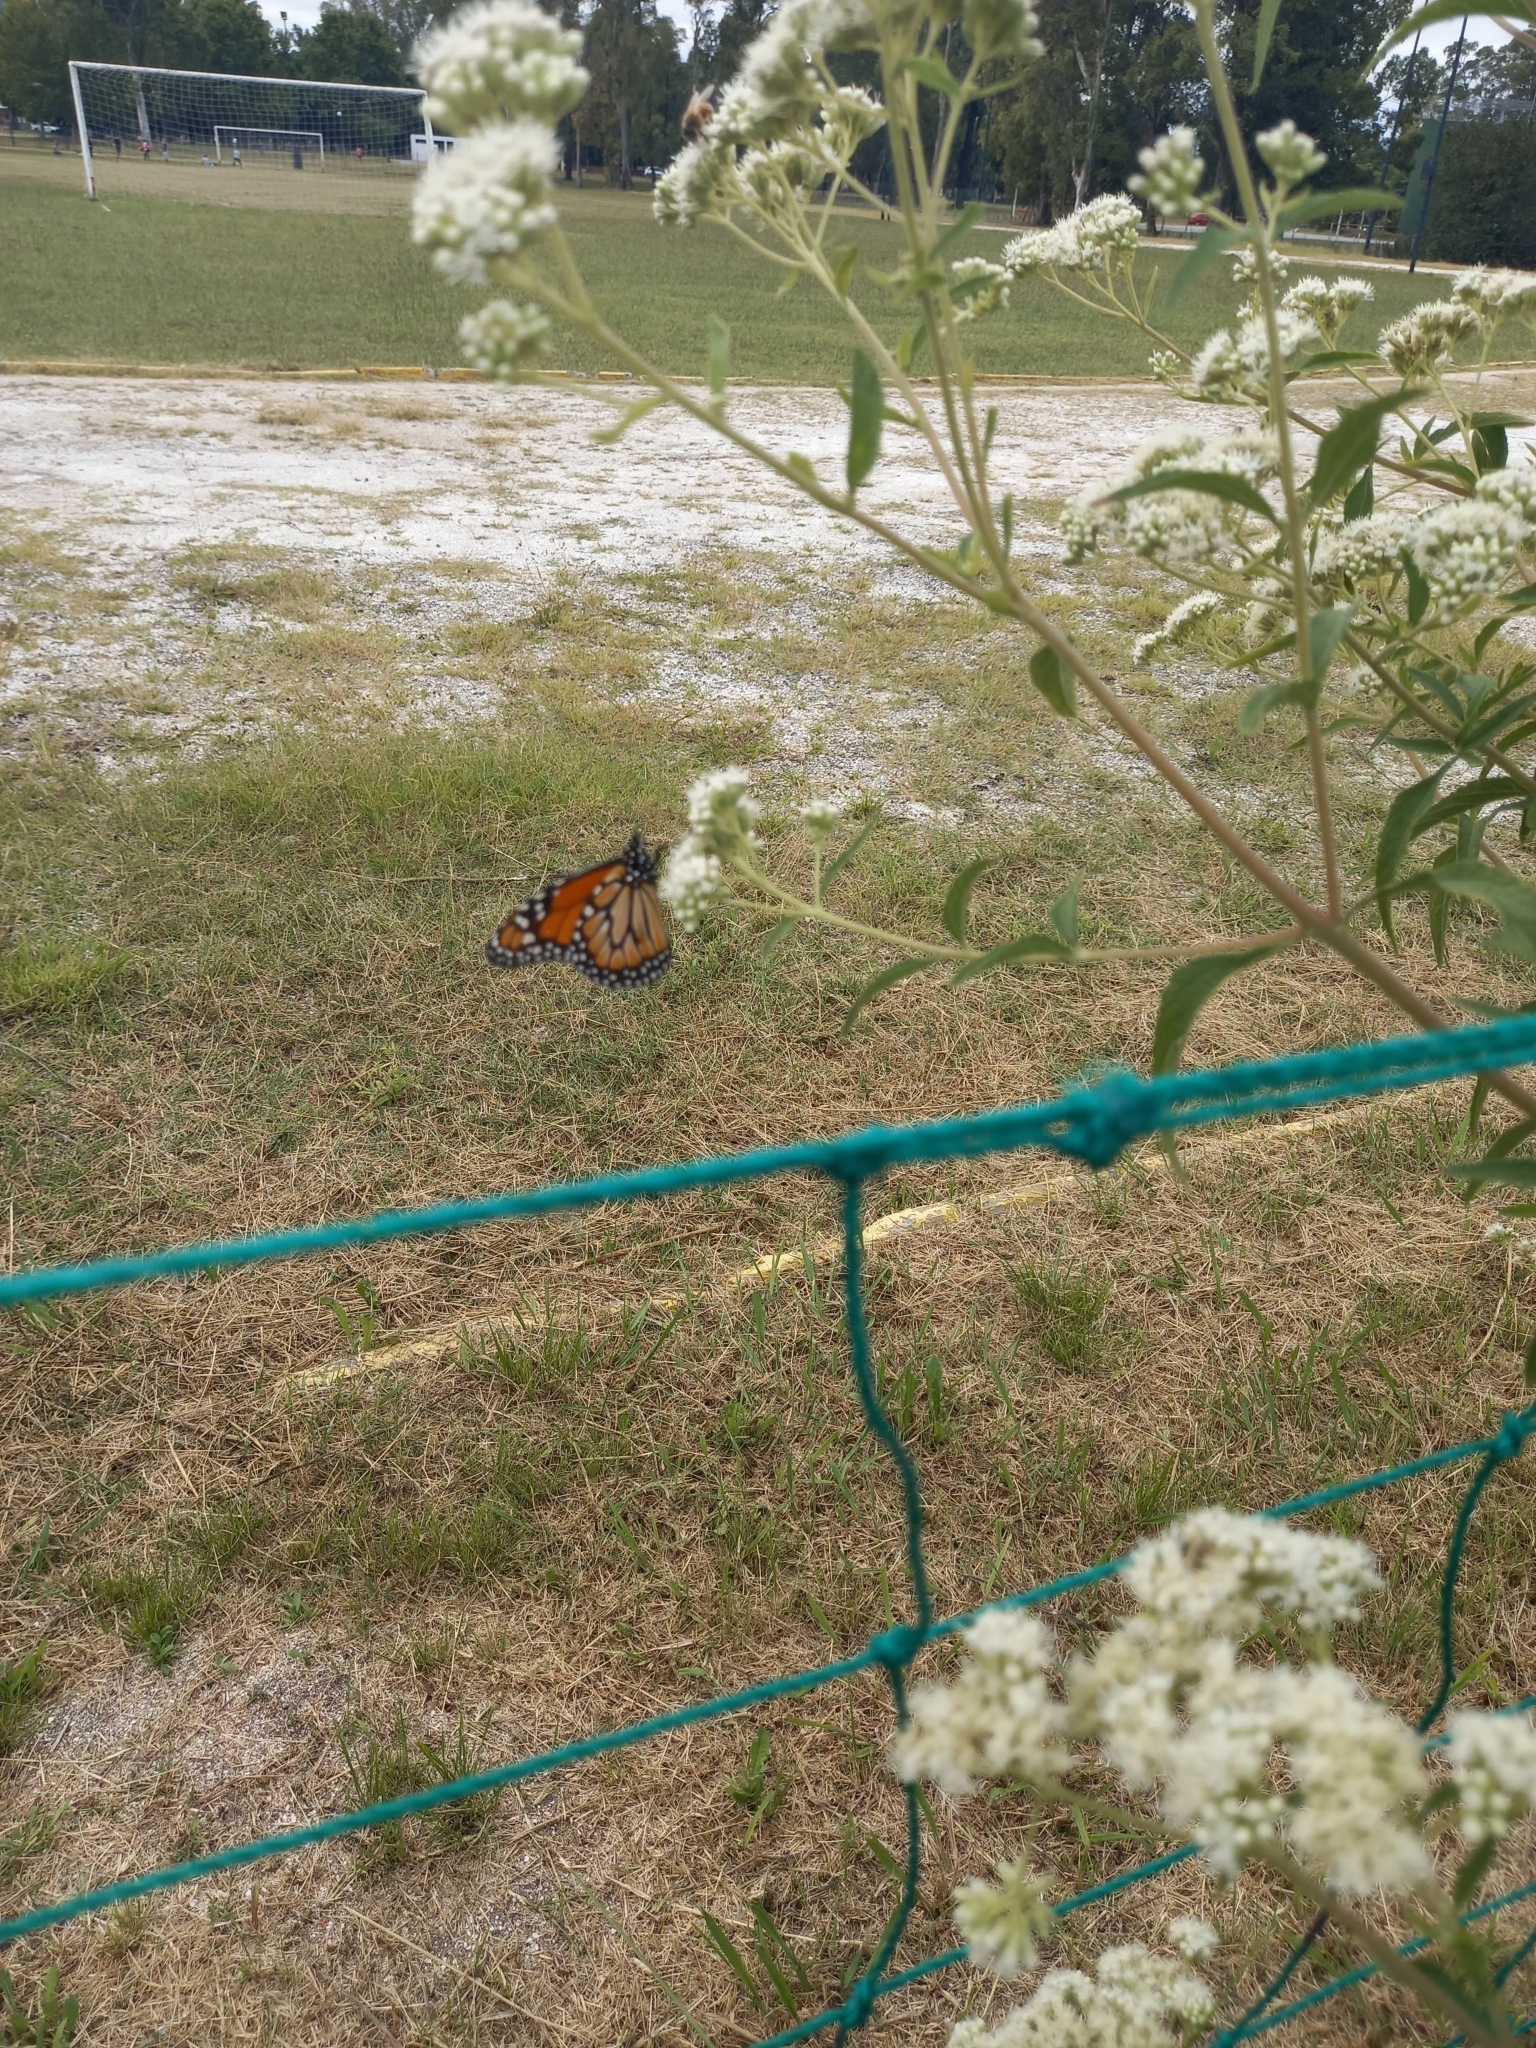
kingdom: Animalia
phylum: Arthropoda
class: Insecta
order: Lepidoptera
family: Nymphalidae
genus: Danaus
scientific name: Danaus erippus
